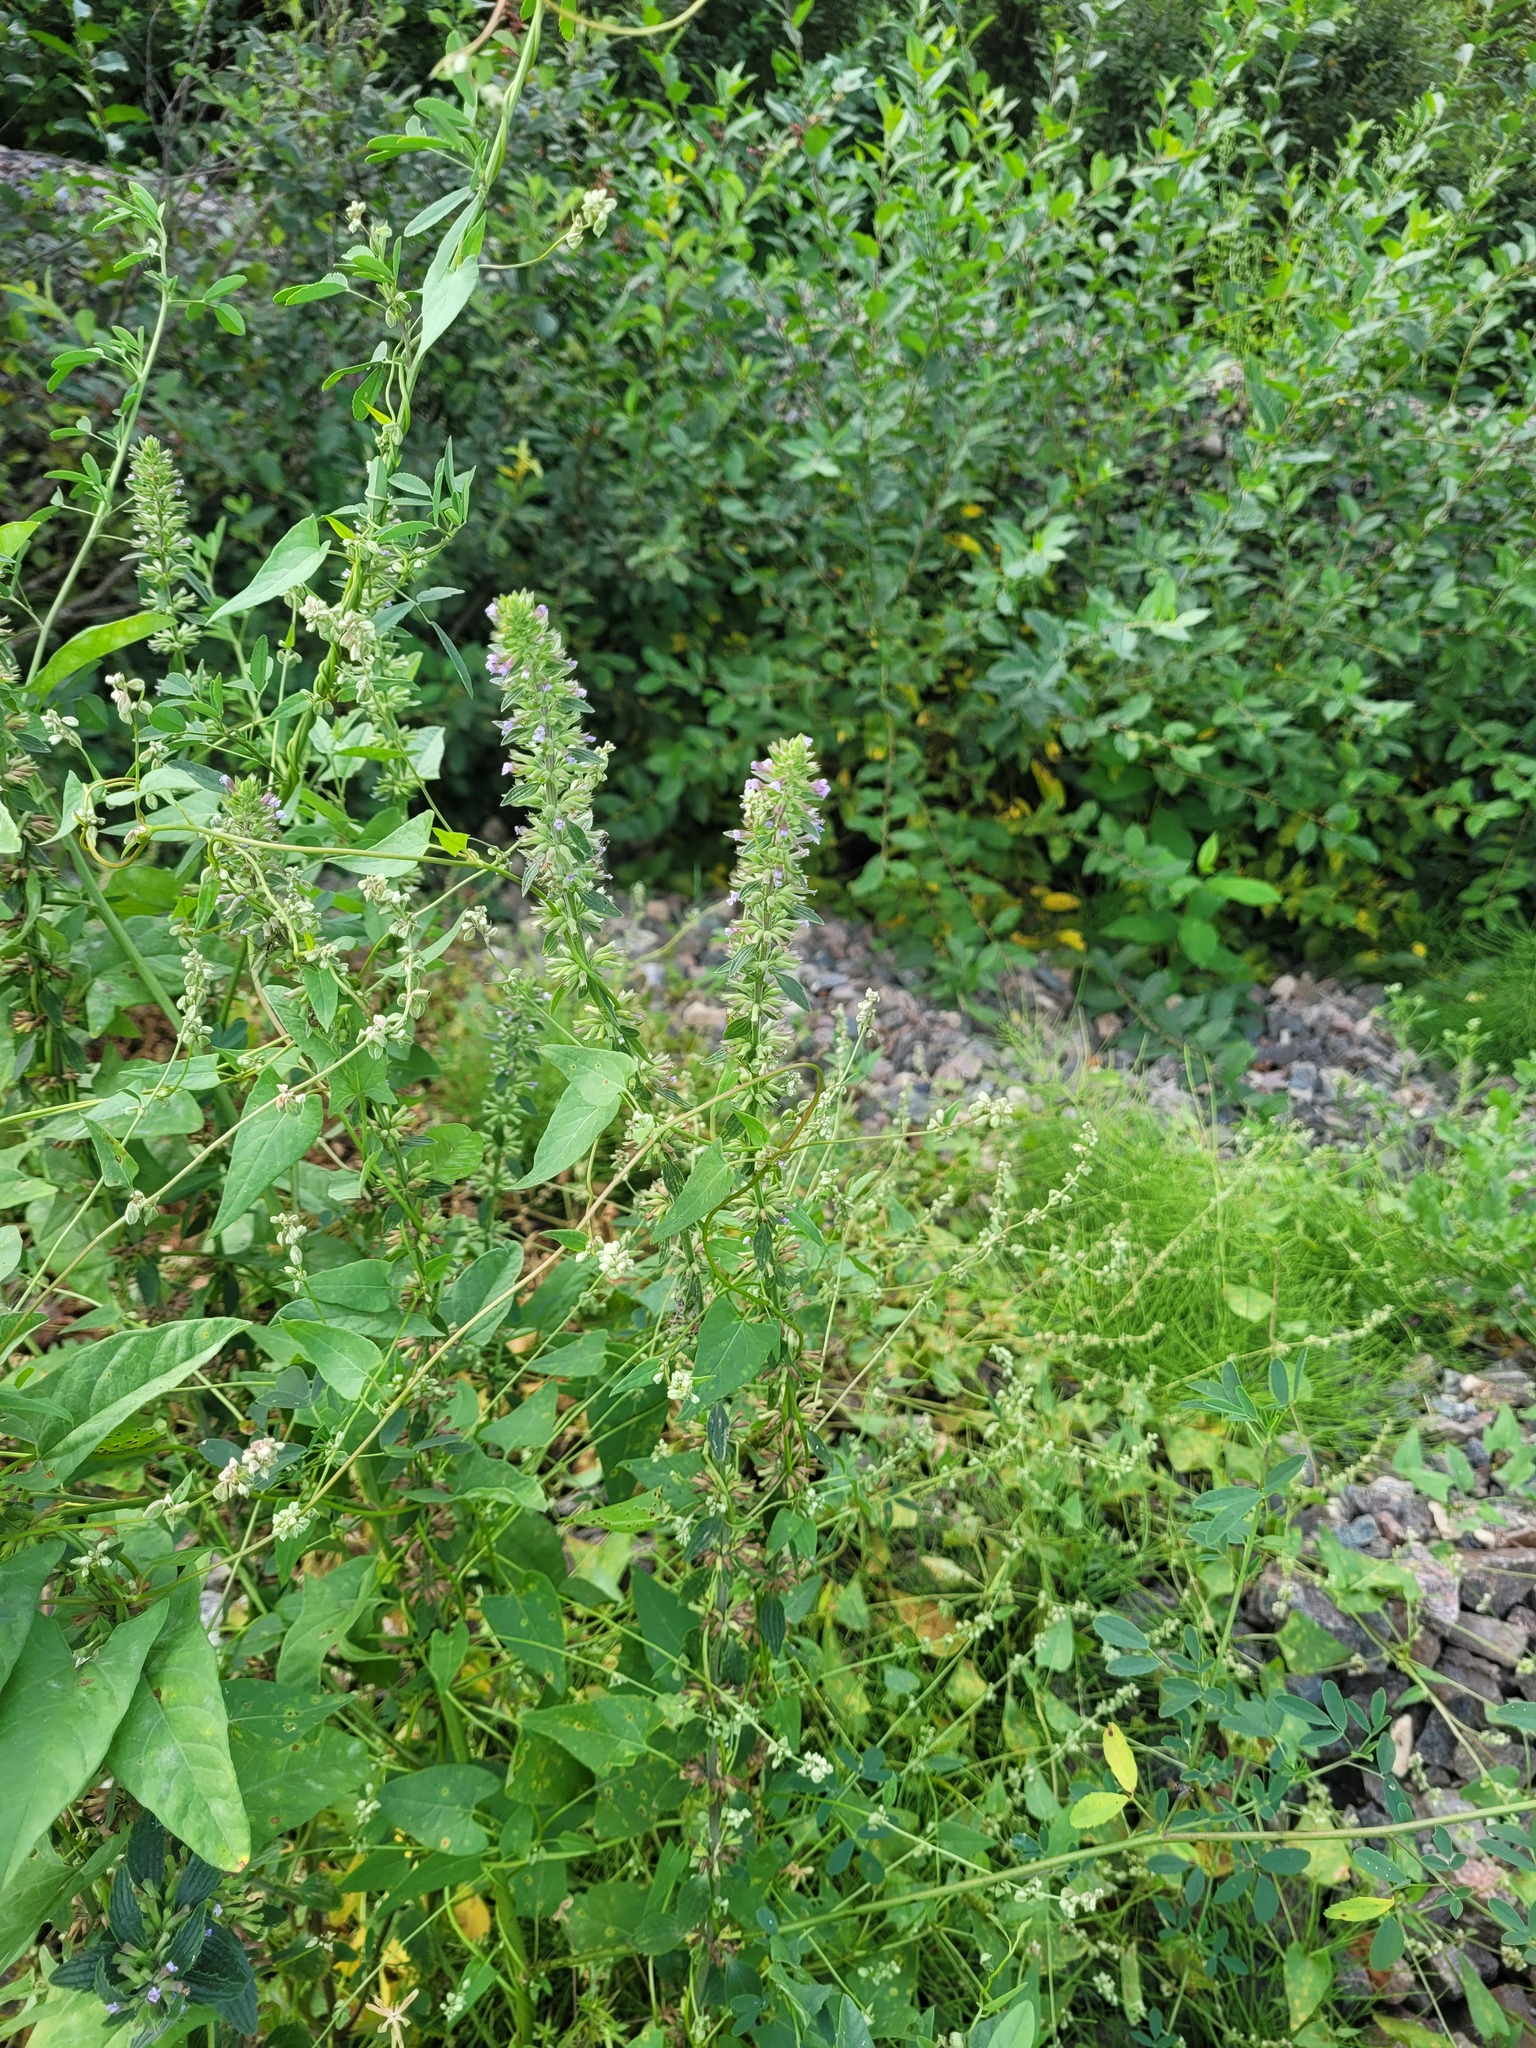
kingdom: Plantae
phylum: Tracheophyta
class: Magnoliopsida
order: Lamiales
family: Lamiaceae
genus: Dracocephalum
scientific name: Dracocephalum thymiflorum
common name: Thymeleaf dragonhead
